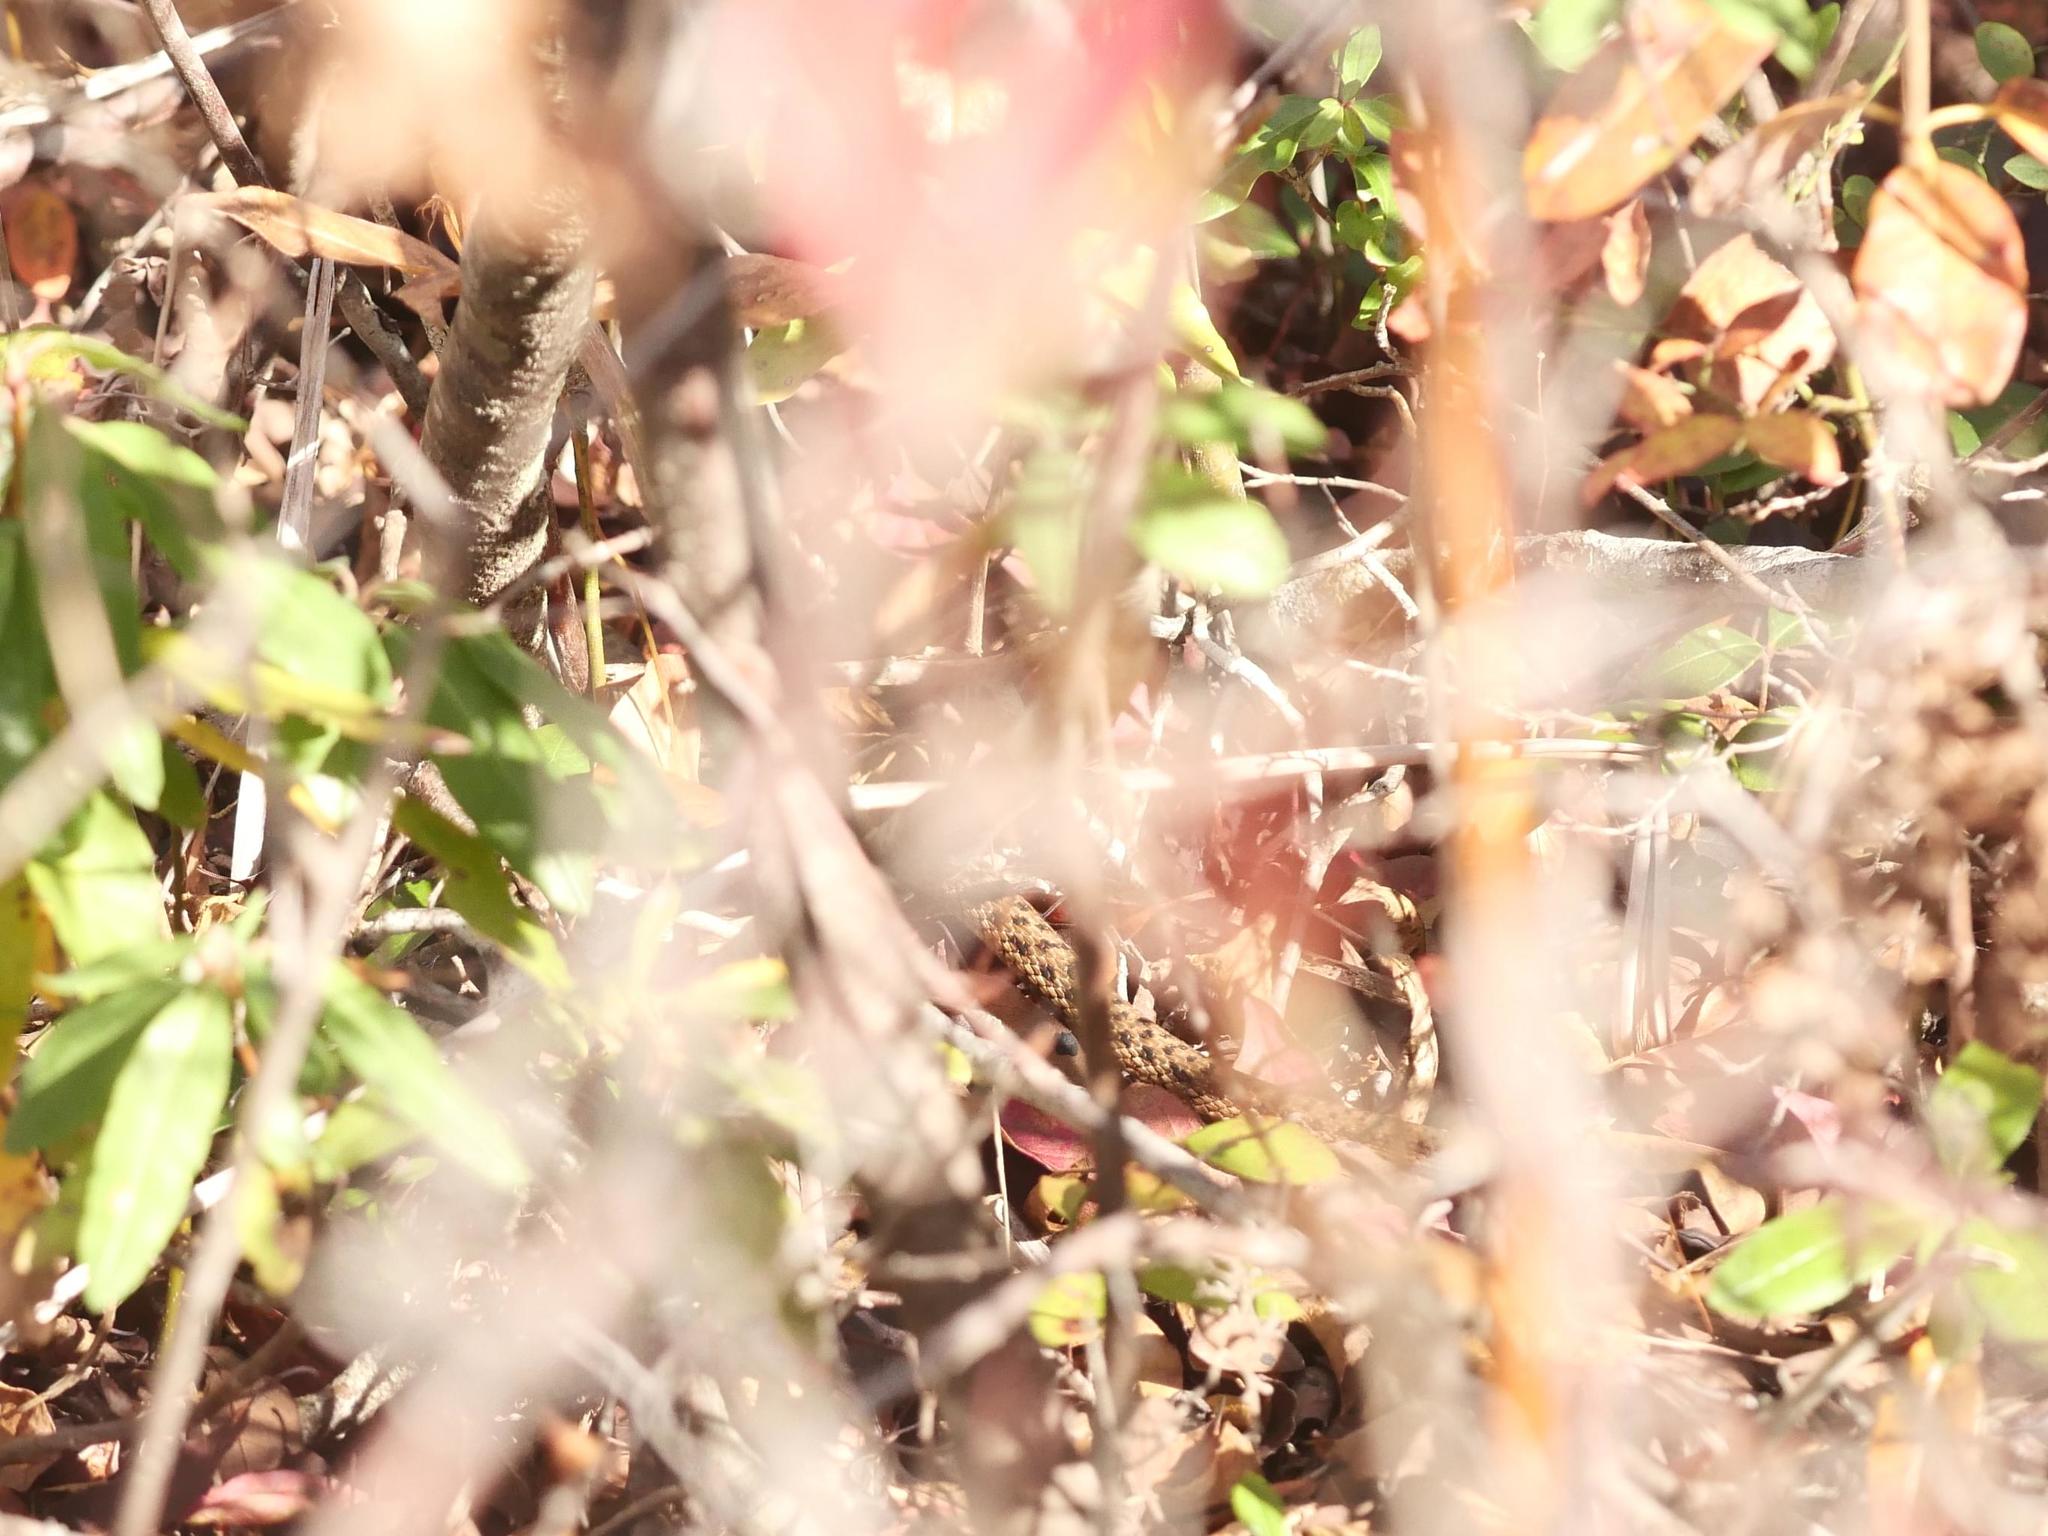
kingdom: Animalia
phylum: Chordata
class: Squamata
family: Colubridae
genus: Thamnophis
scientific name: Thamnophis sirtalis
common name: Common garter snake
